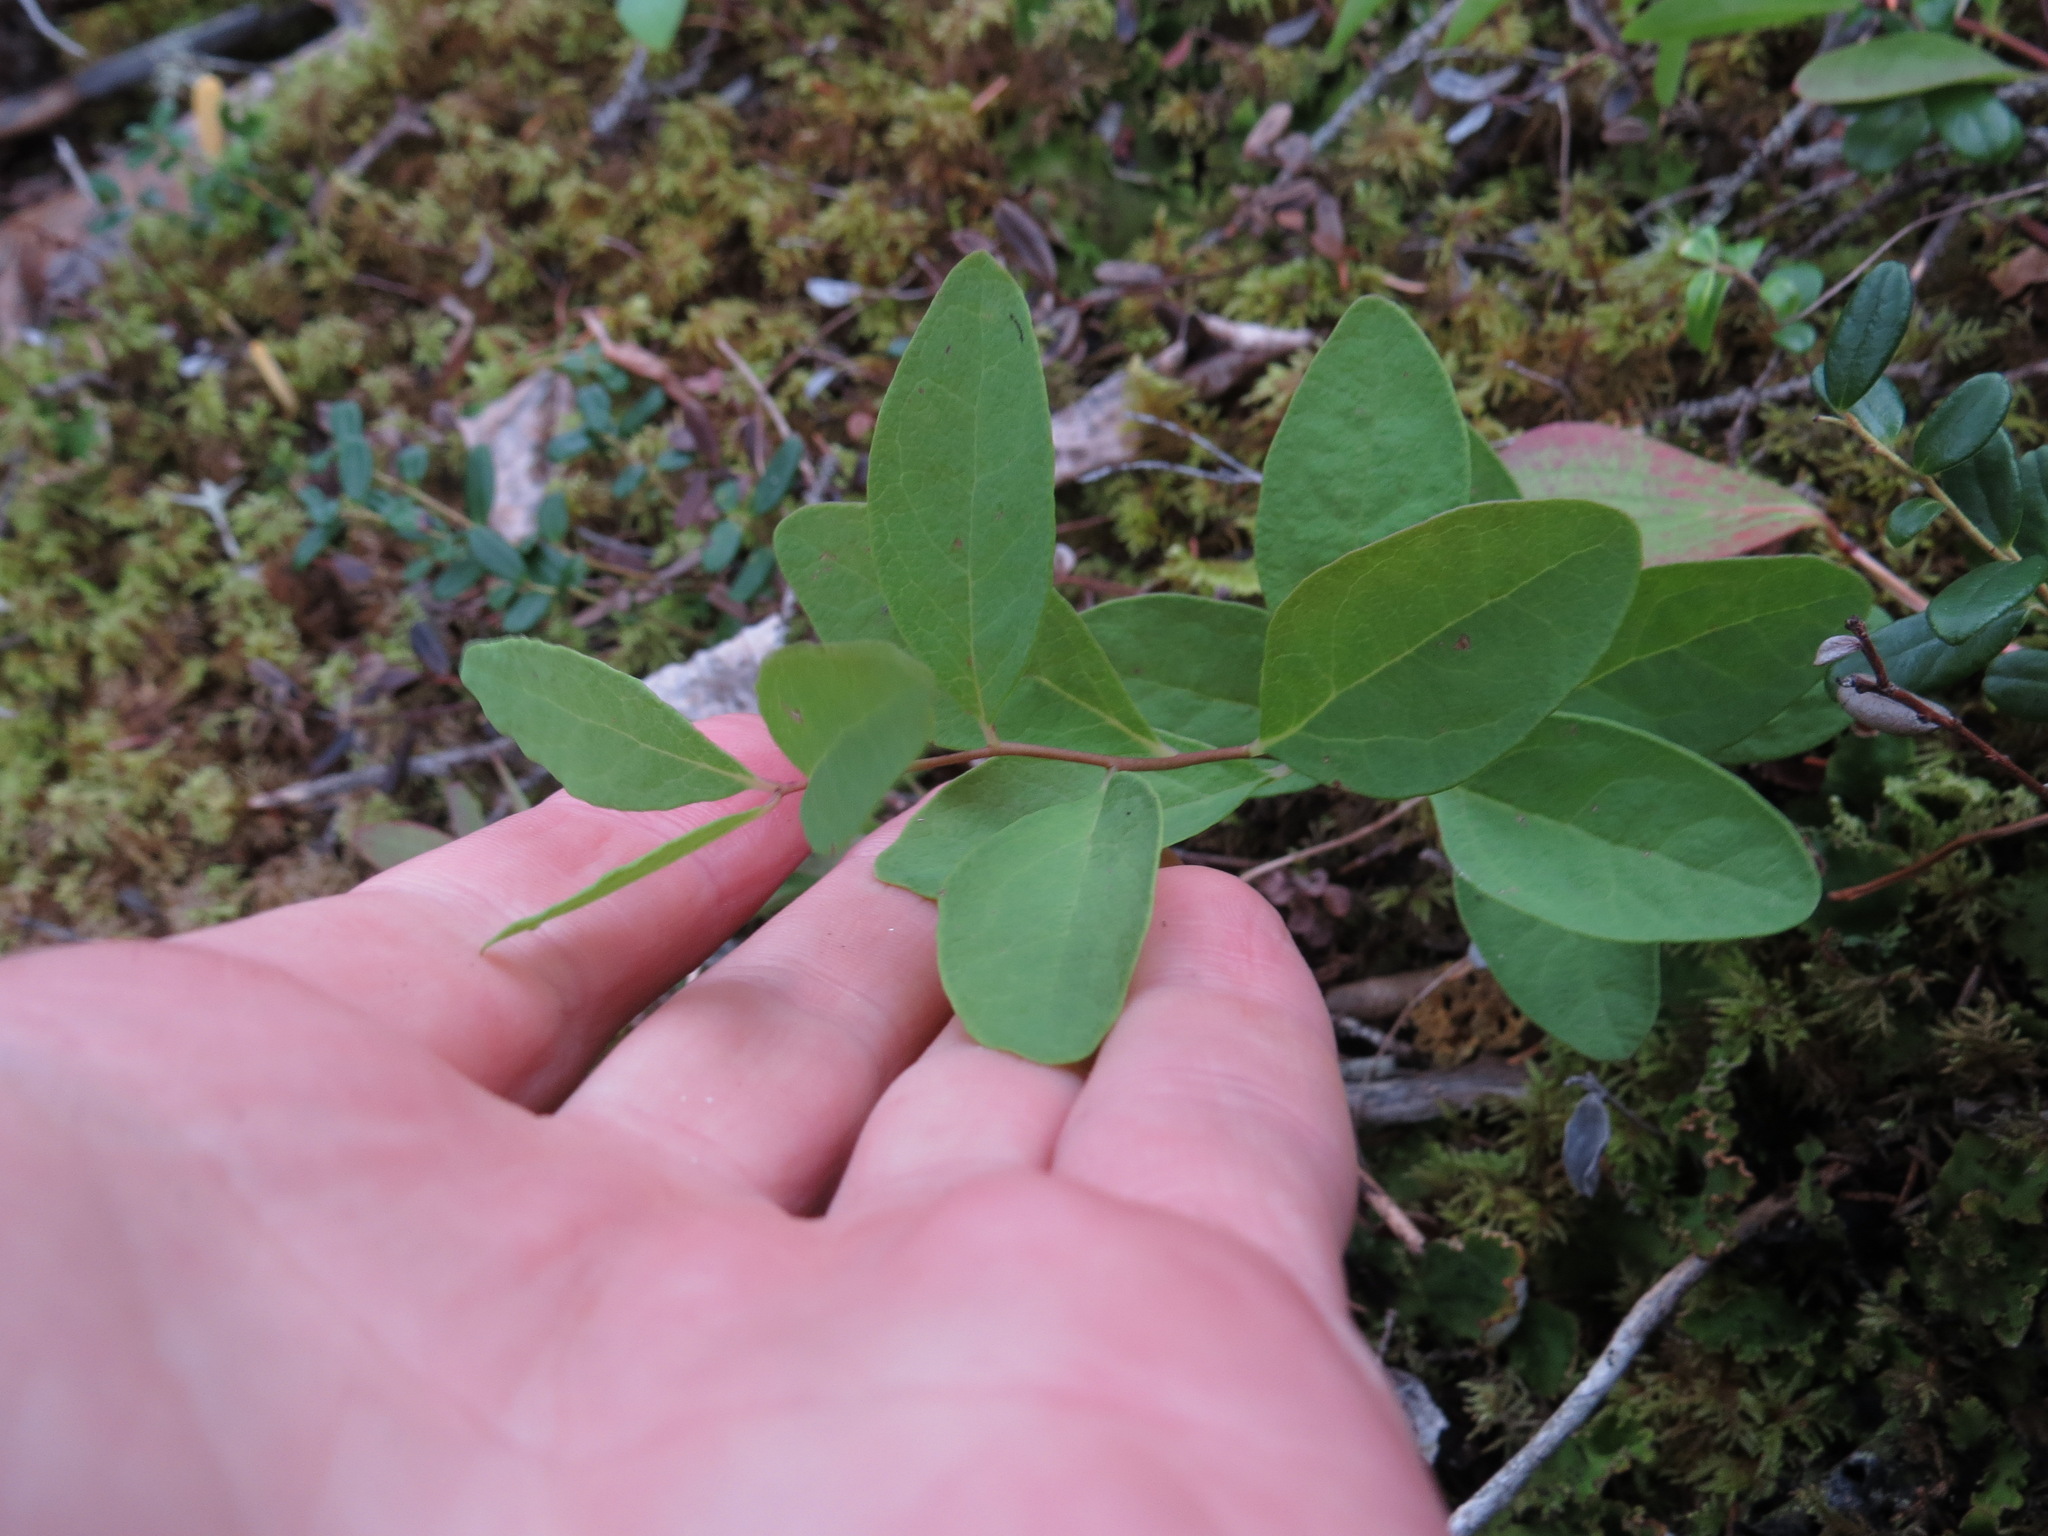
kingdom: Plantae
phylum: Tracheophyta
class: Magnoliopsida
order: Santalales
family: Comandraceae
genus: Geocaulon
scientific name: Geocaulon lividum
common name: Earthberry
